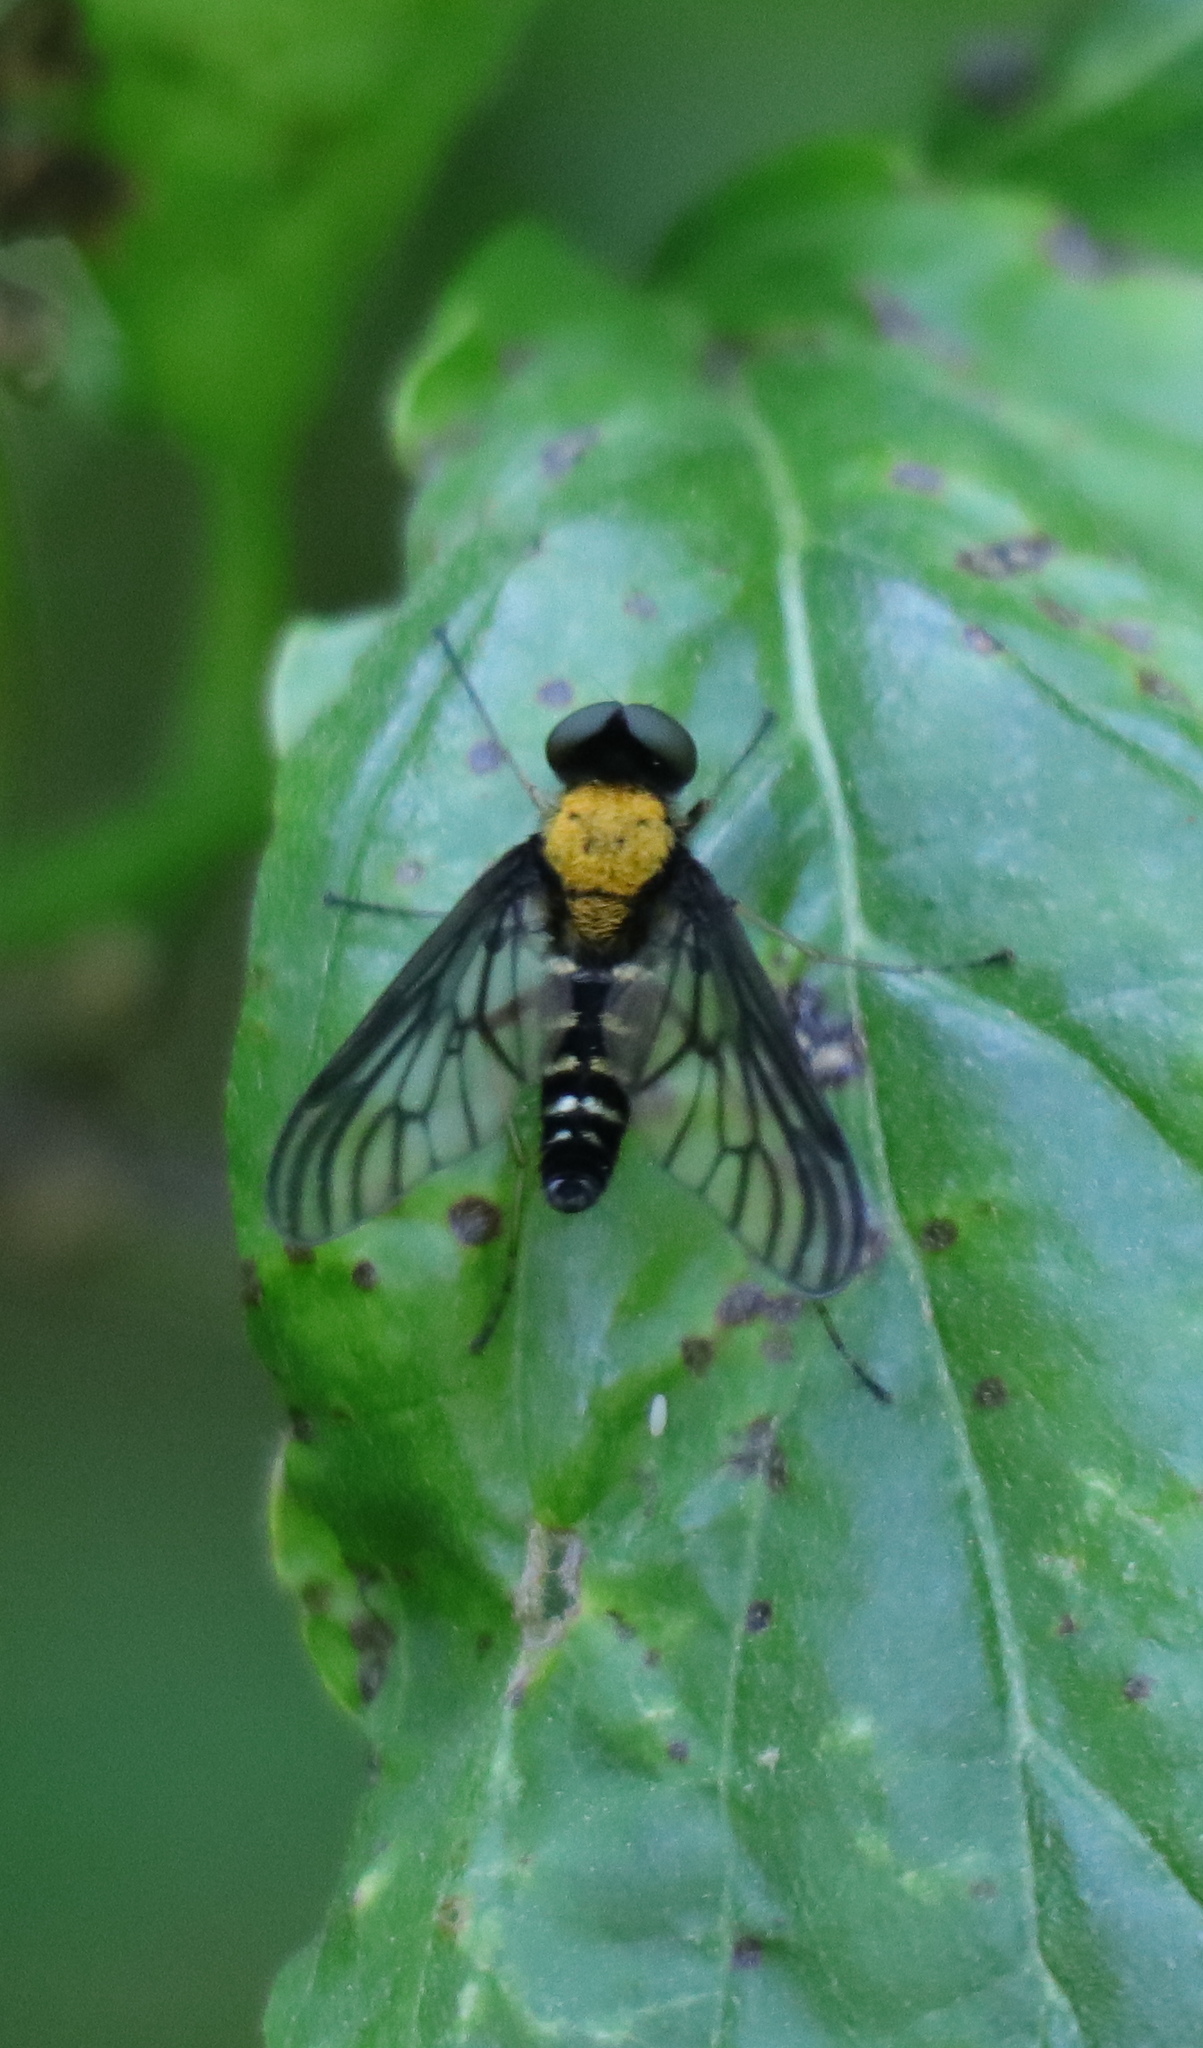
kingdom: Animalia
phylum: Arthropoda
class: Insecta
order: Diptera
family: Rhagionidae
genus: Chrysopilus
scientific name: Chrysopilus thoracicus
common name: Golden-backed snipe fly
